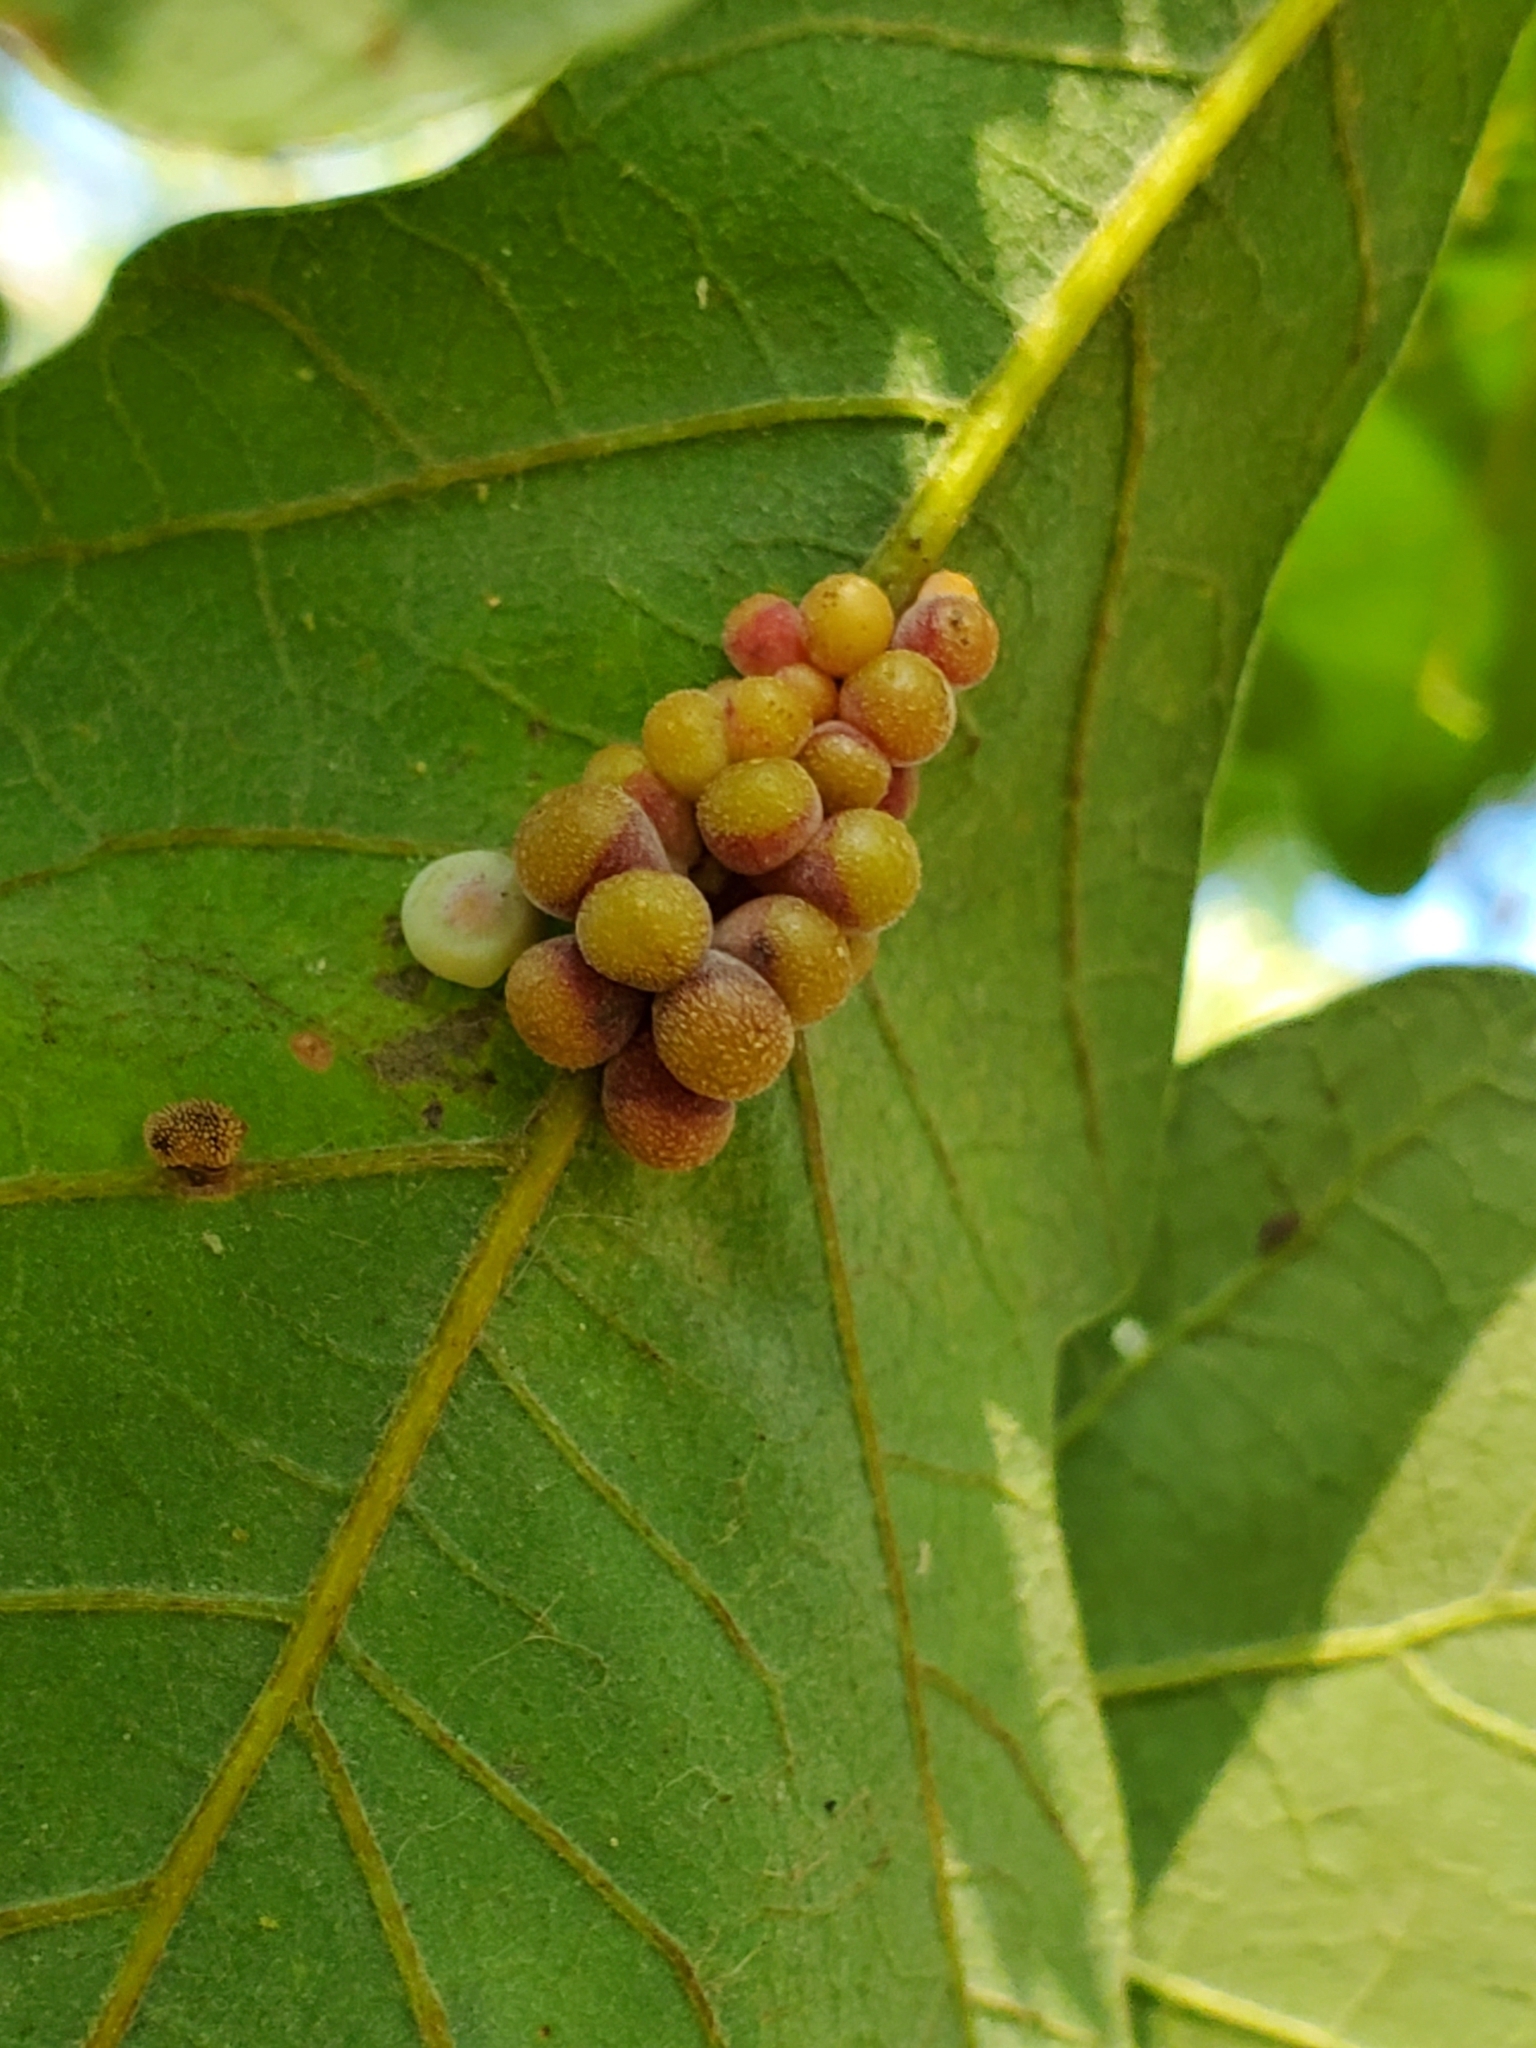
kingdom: Animalia
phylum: Arthropoda
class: Insecta
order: Hymenoptera
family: Cynipidae
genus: Andricus
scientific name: Andricus
